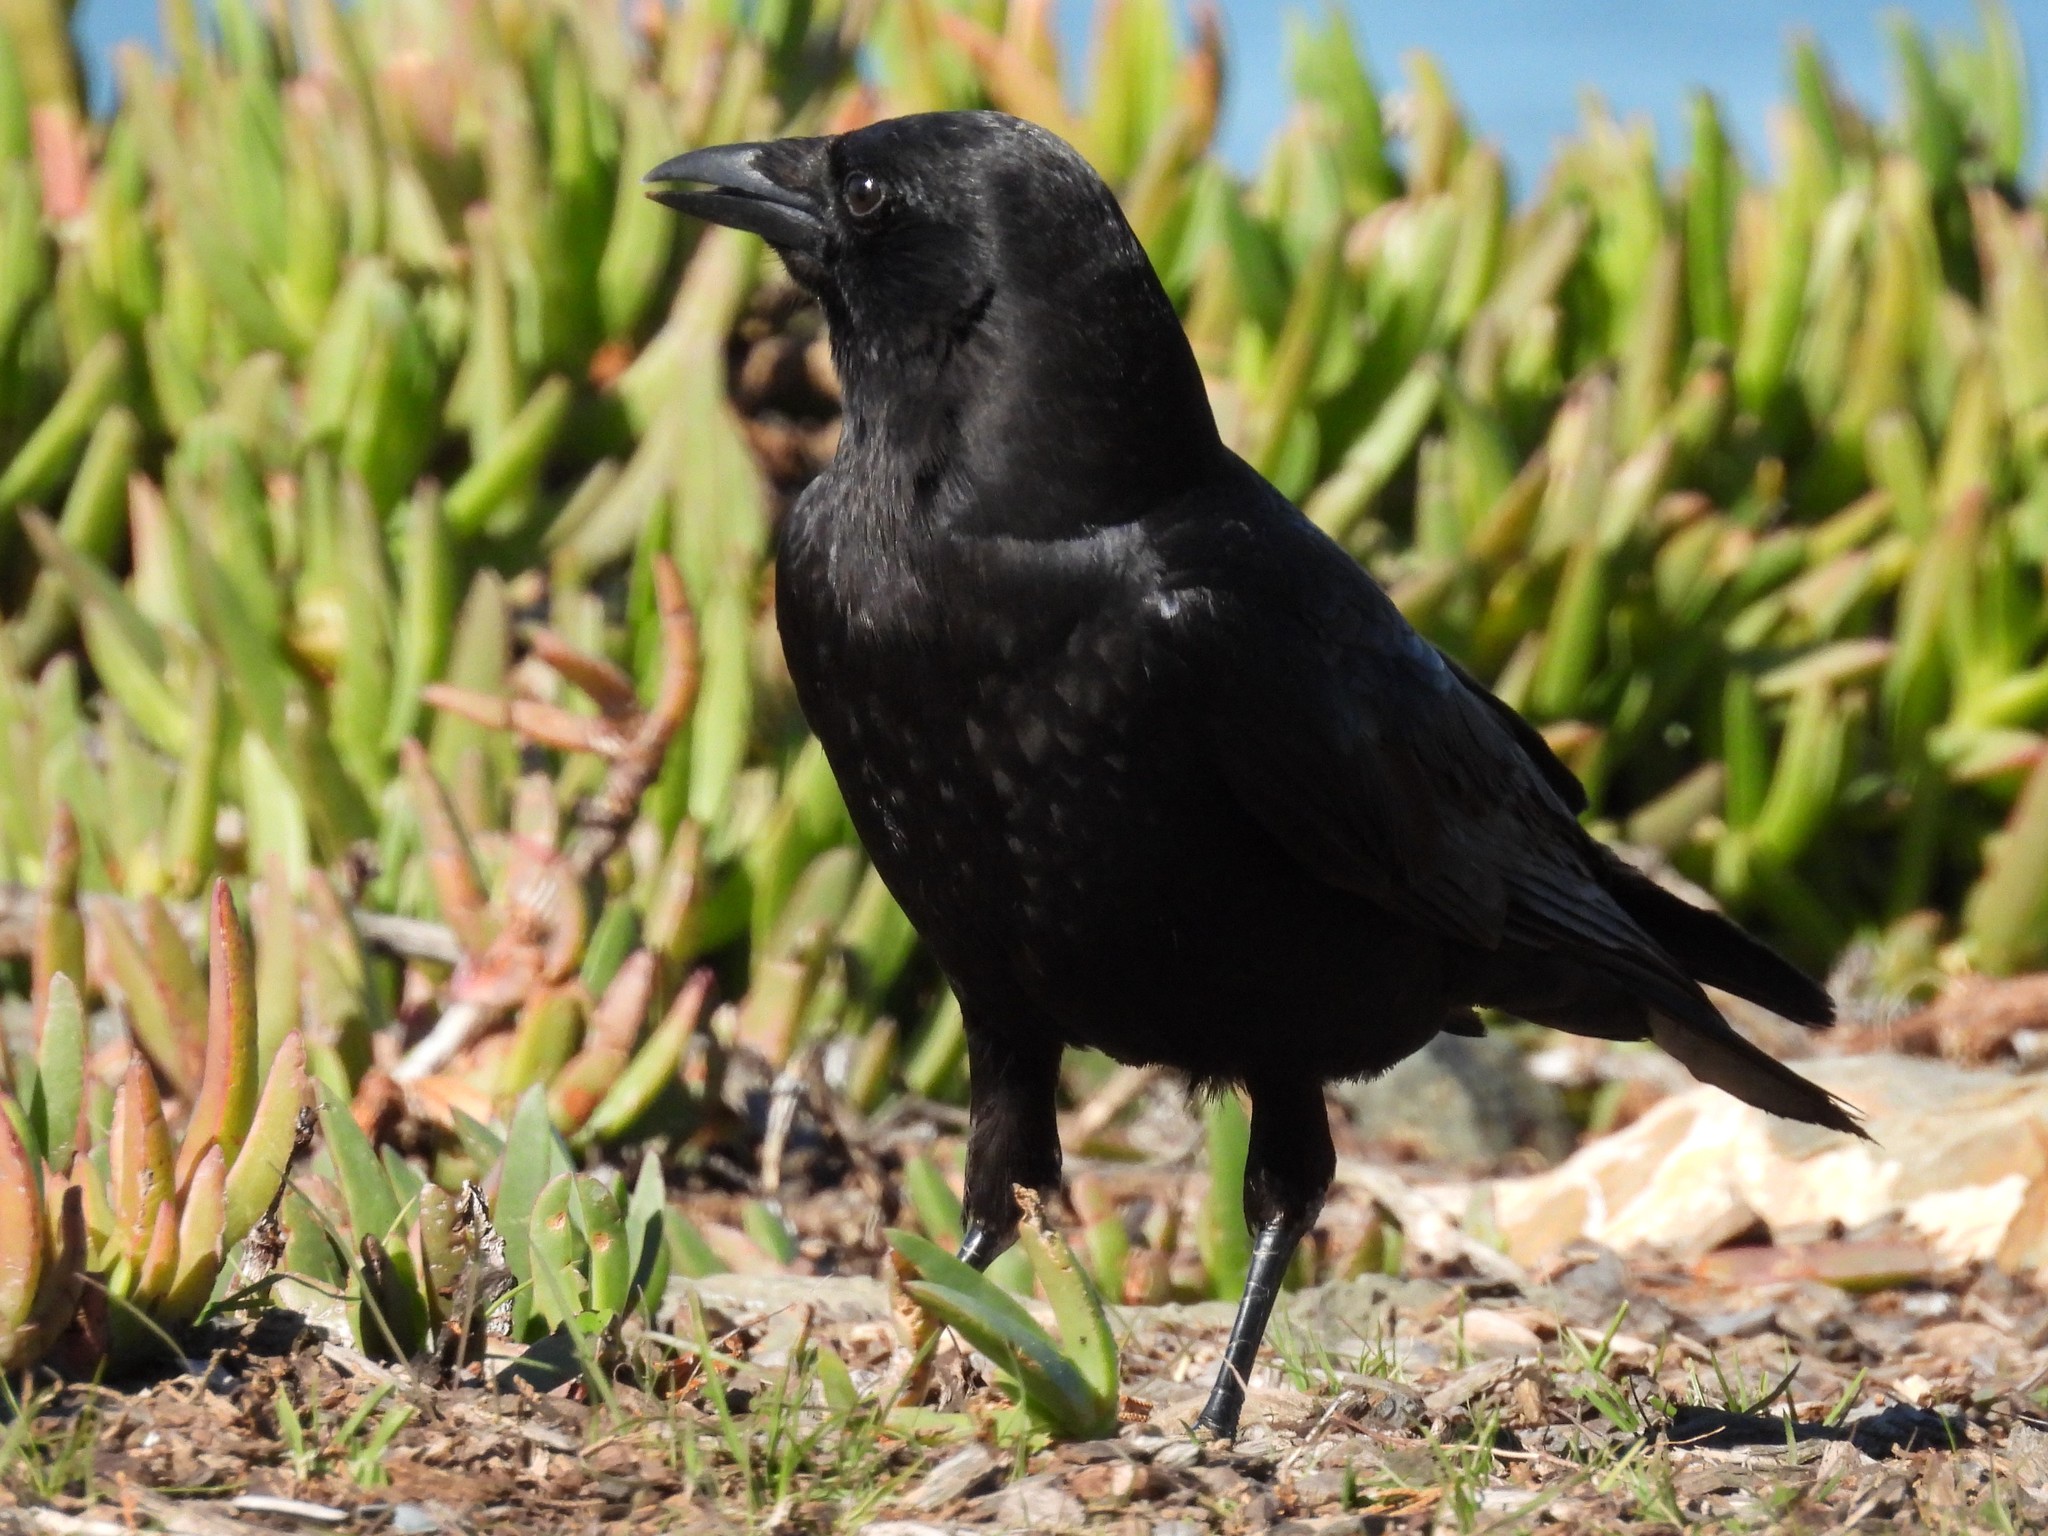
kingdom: Animalia
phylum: Chordata
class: Aves
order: Passeriformes
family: Corvidae
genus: Corvus
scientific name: Corvus brachyrhynchos
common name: American crow
